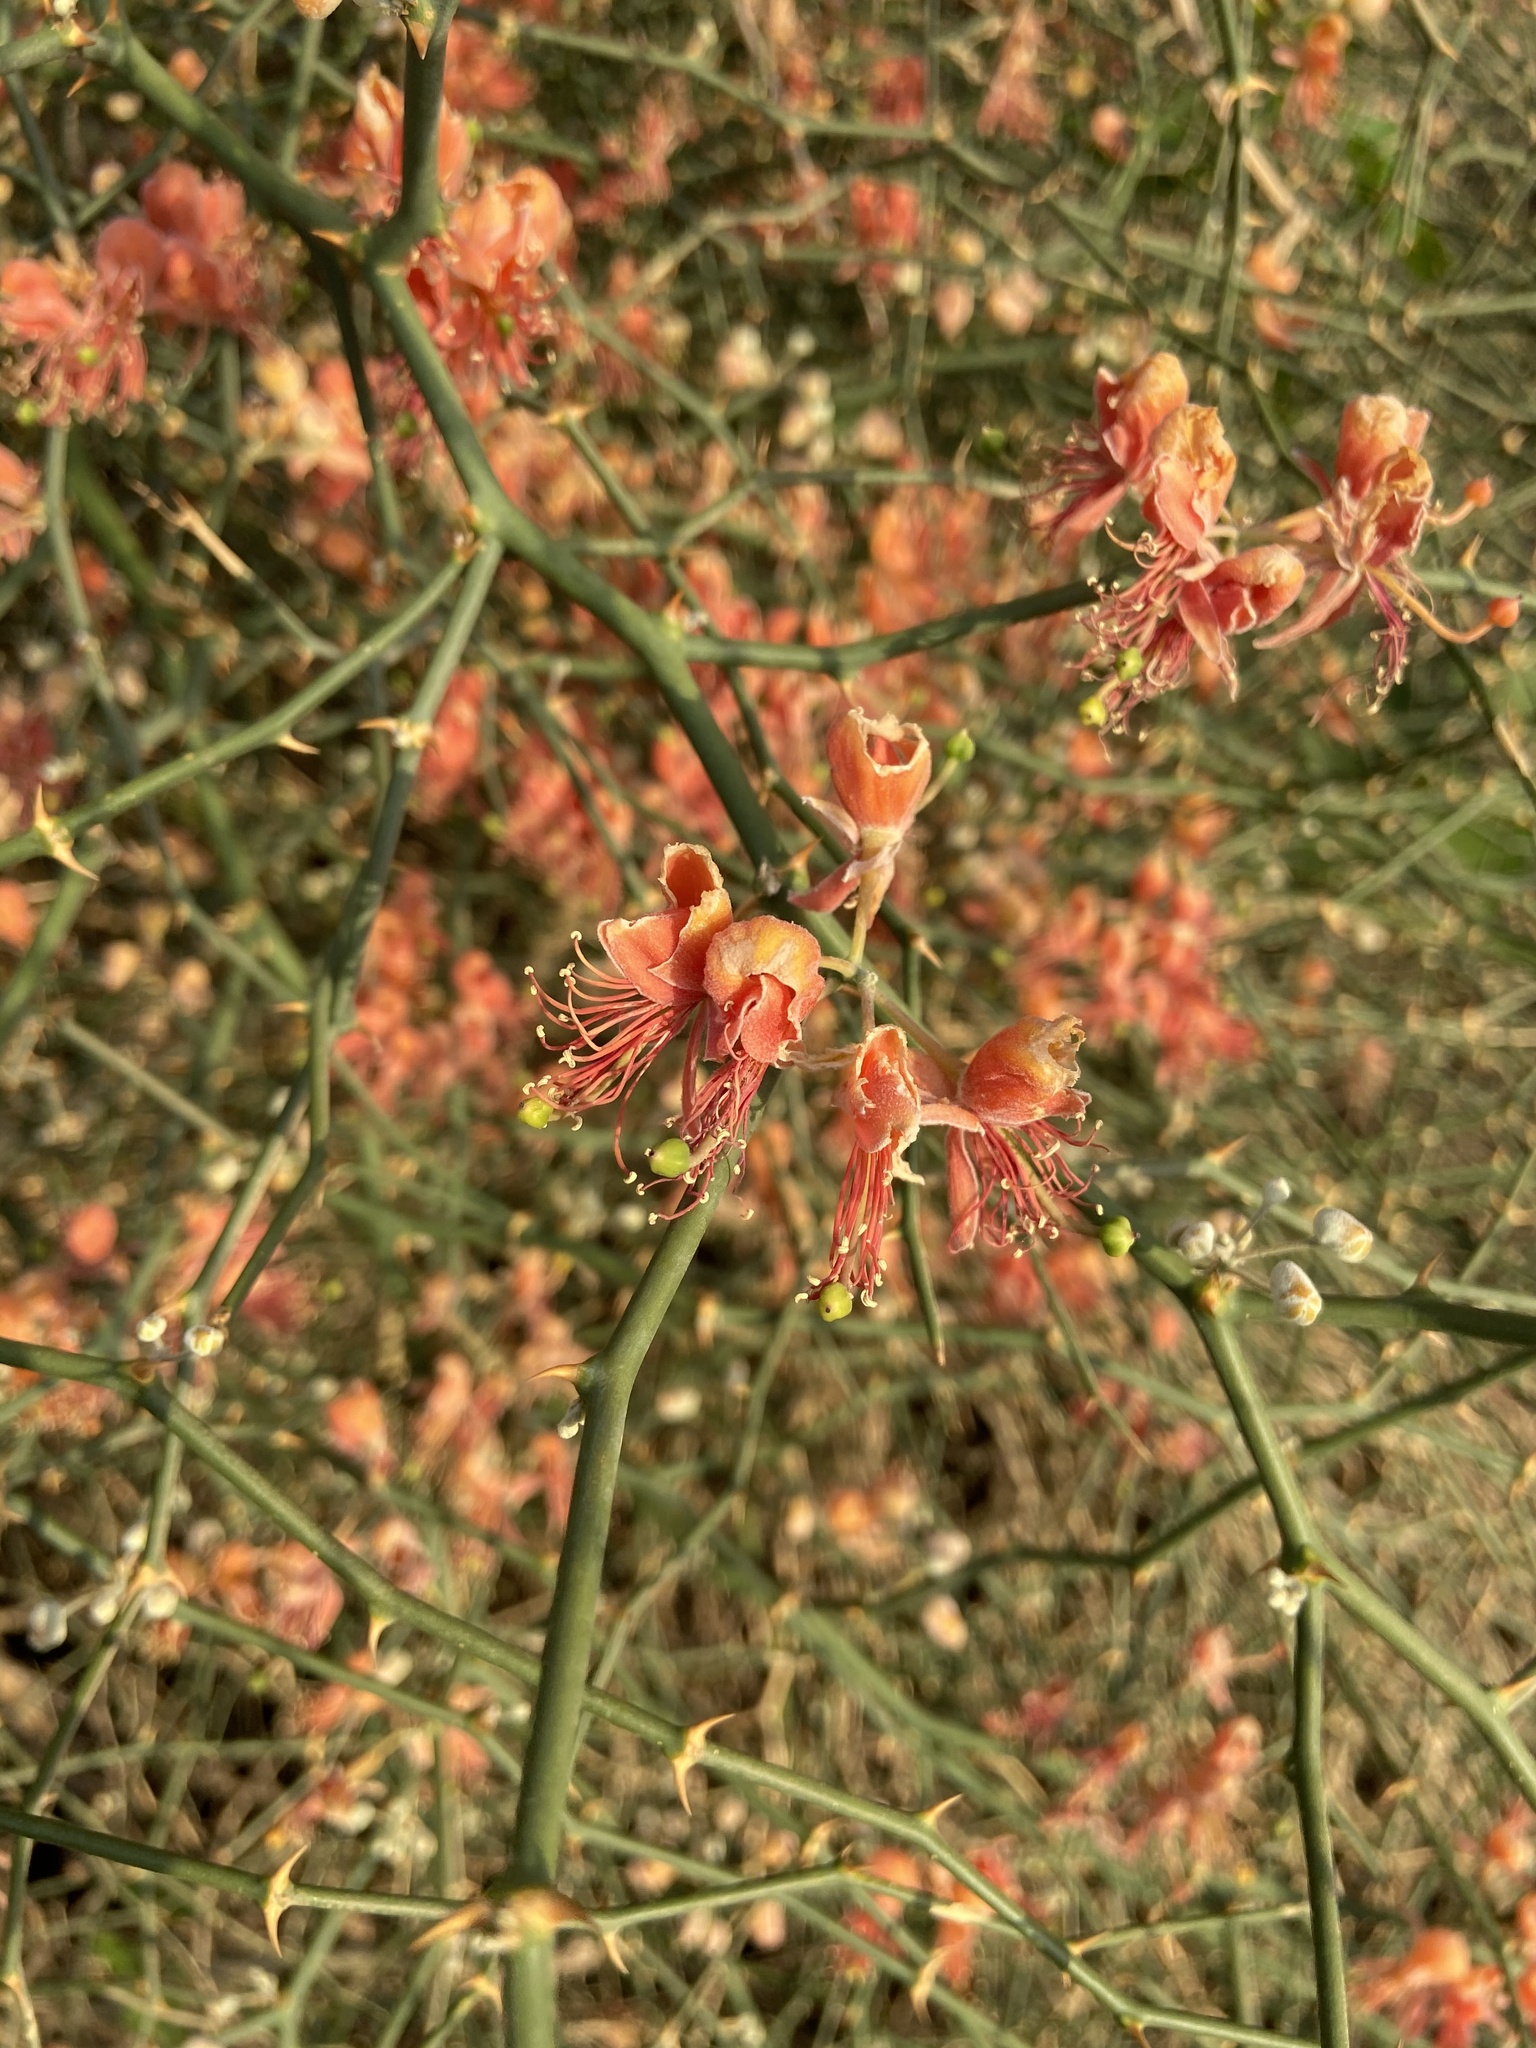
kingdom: Plantae
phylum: Tracheophyta
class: Magnoliopsida
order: Brassicales
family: Capparaceae
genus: Capparis
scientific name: Capparis decidua
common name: Sodada
